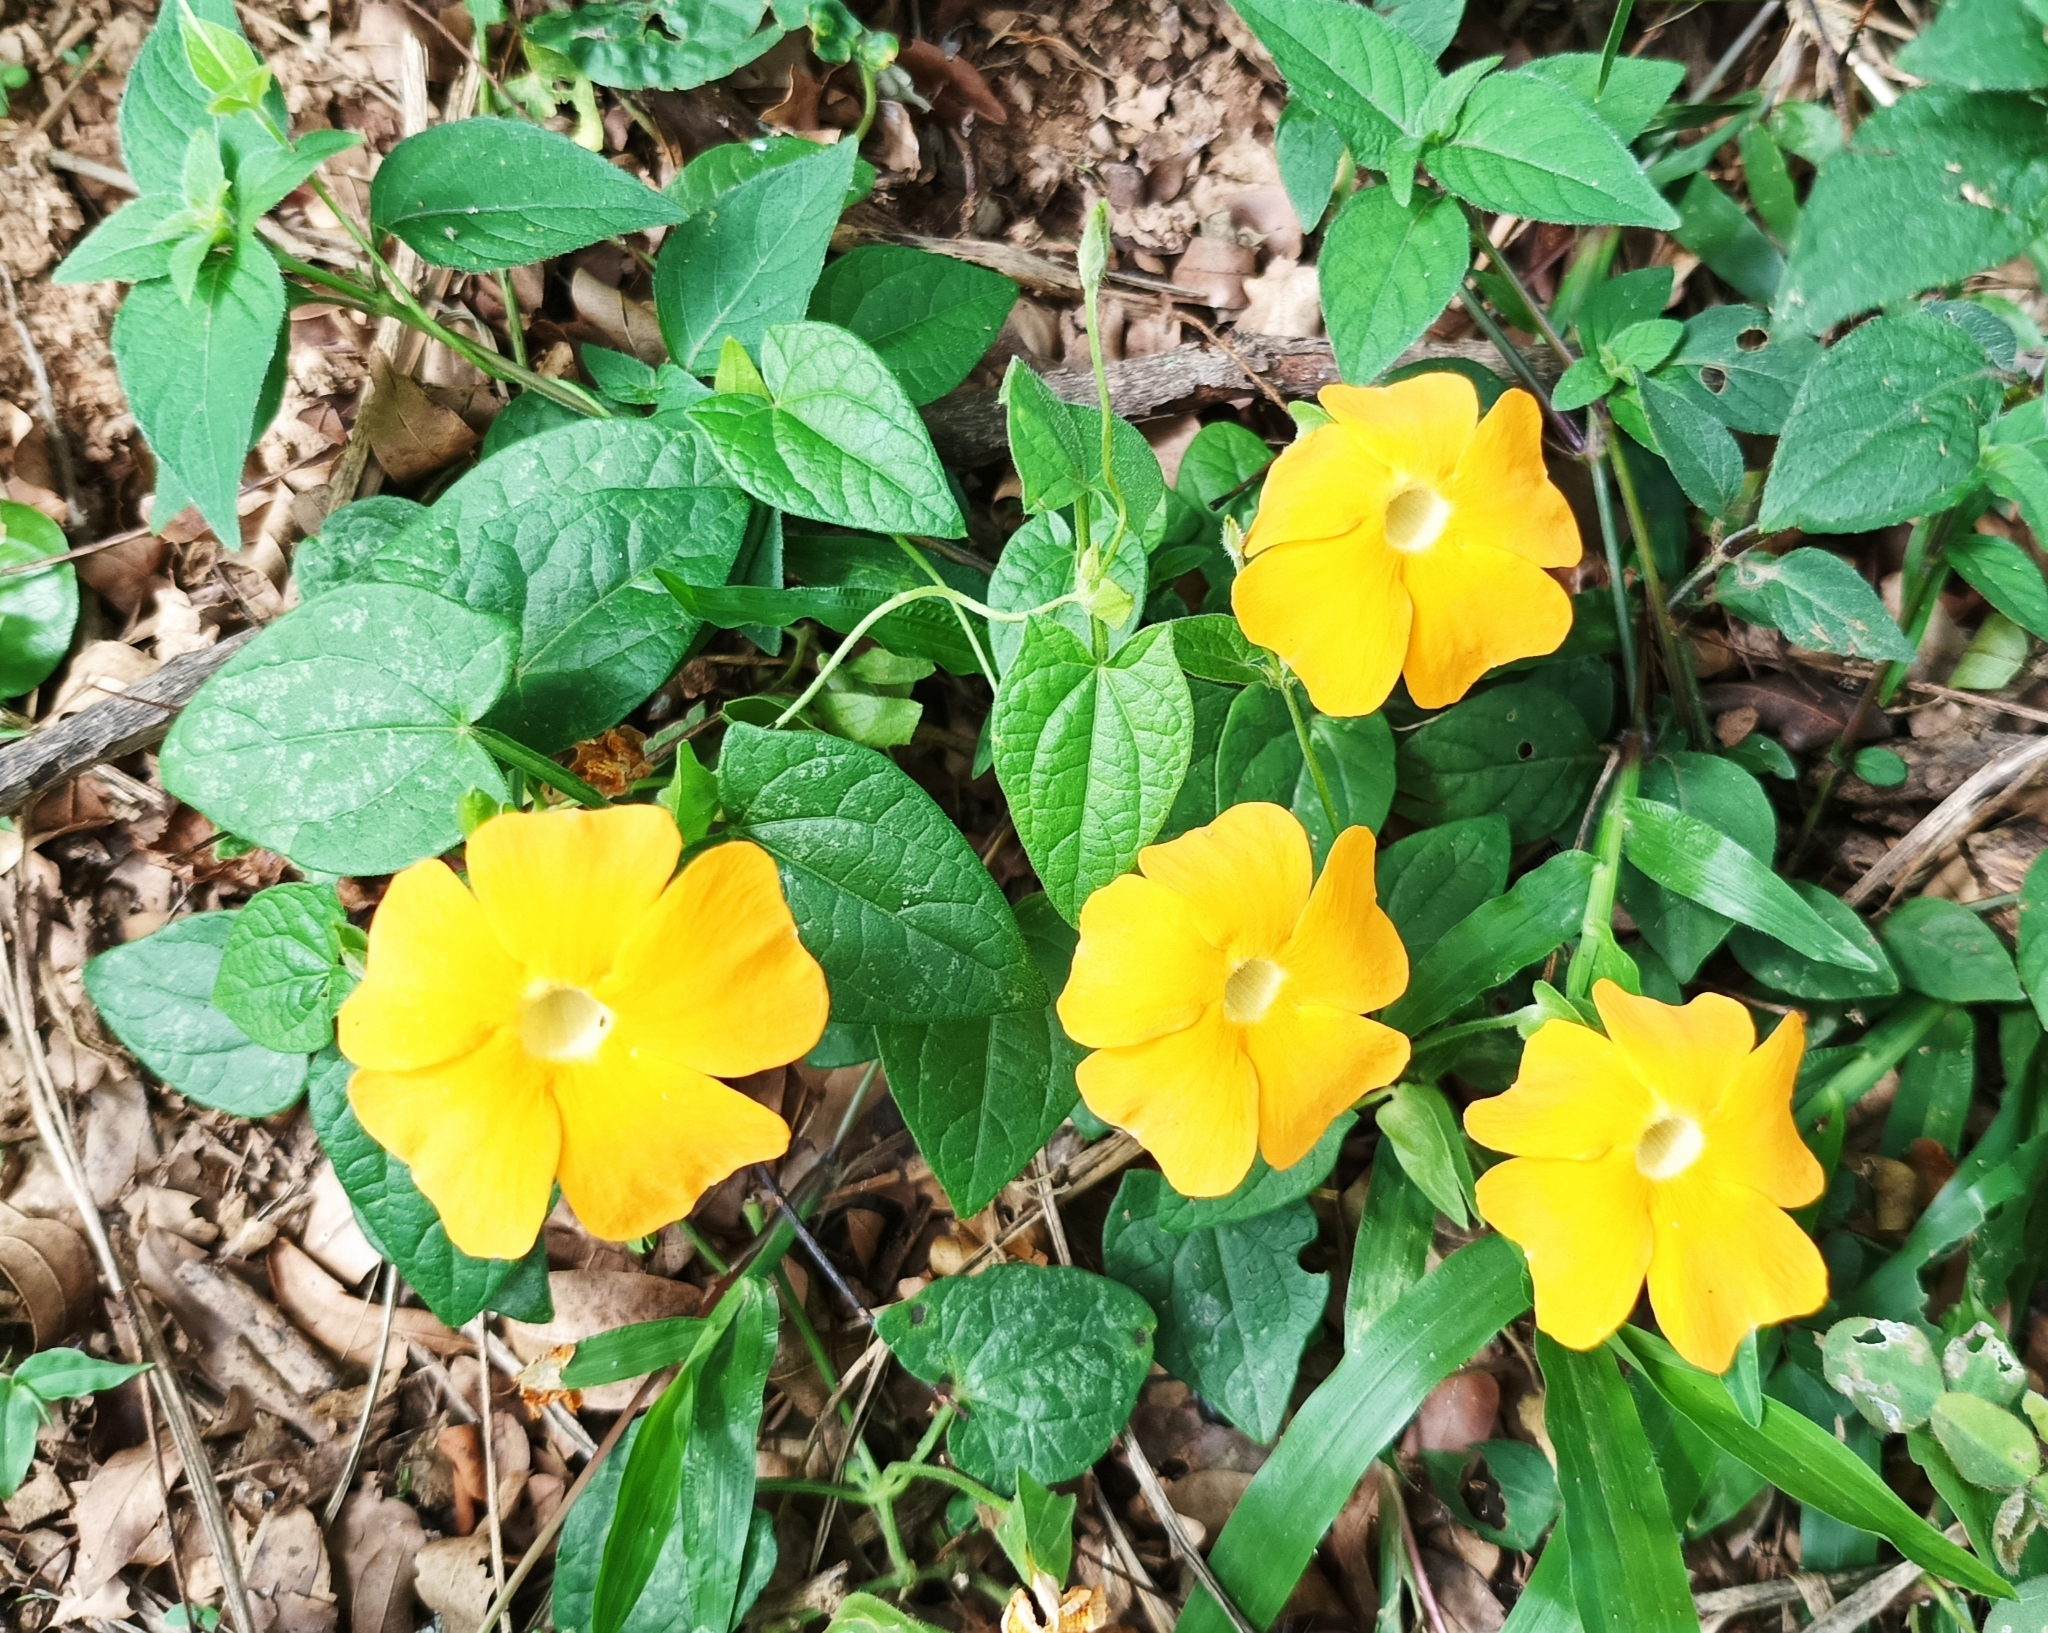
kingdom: Plantae
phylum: Tracheophyta
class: Magnoliopsida
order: Lamiales
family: Acanthaceae
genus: Thunbergia
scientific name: Thunbergia alata
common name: Blackeyed susan vine
